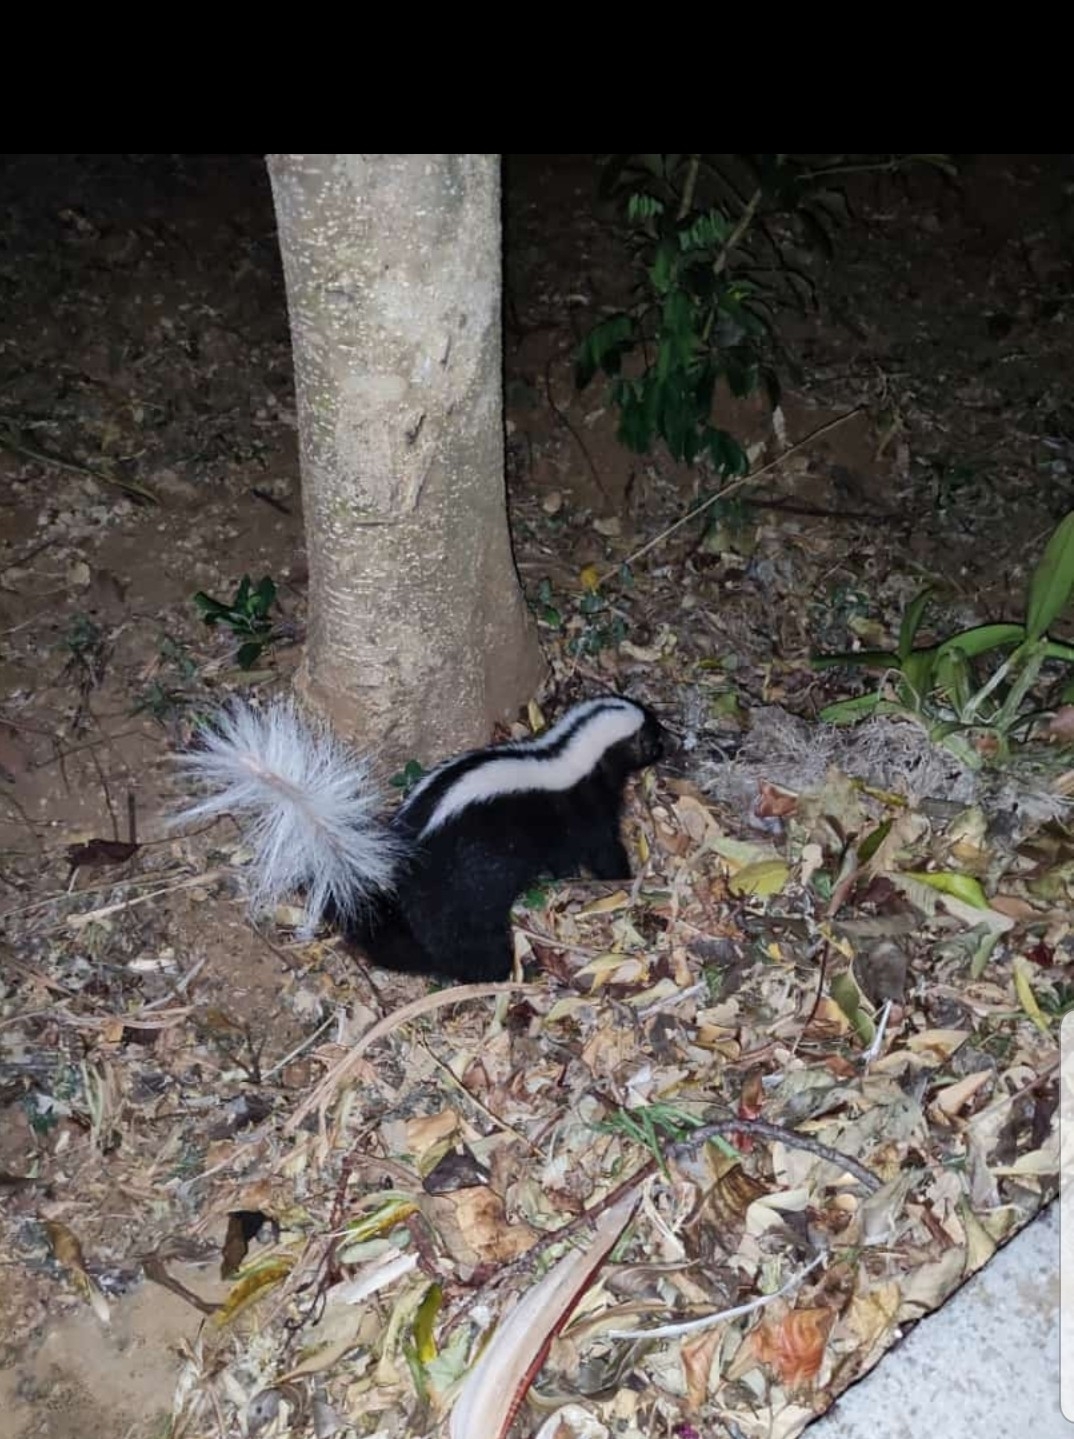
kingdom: Animalia
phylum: Chordata
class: Mammalia
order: Carnivora
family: Mephitidae
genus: Conepatus
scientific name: Conepatus semistriatus
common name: Striped hog-nosed skunk
